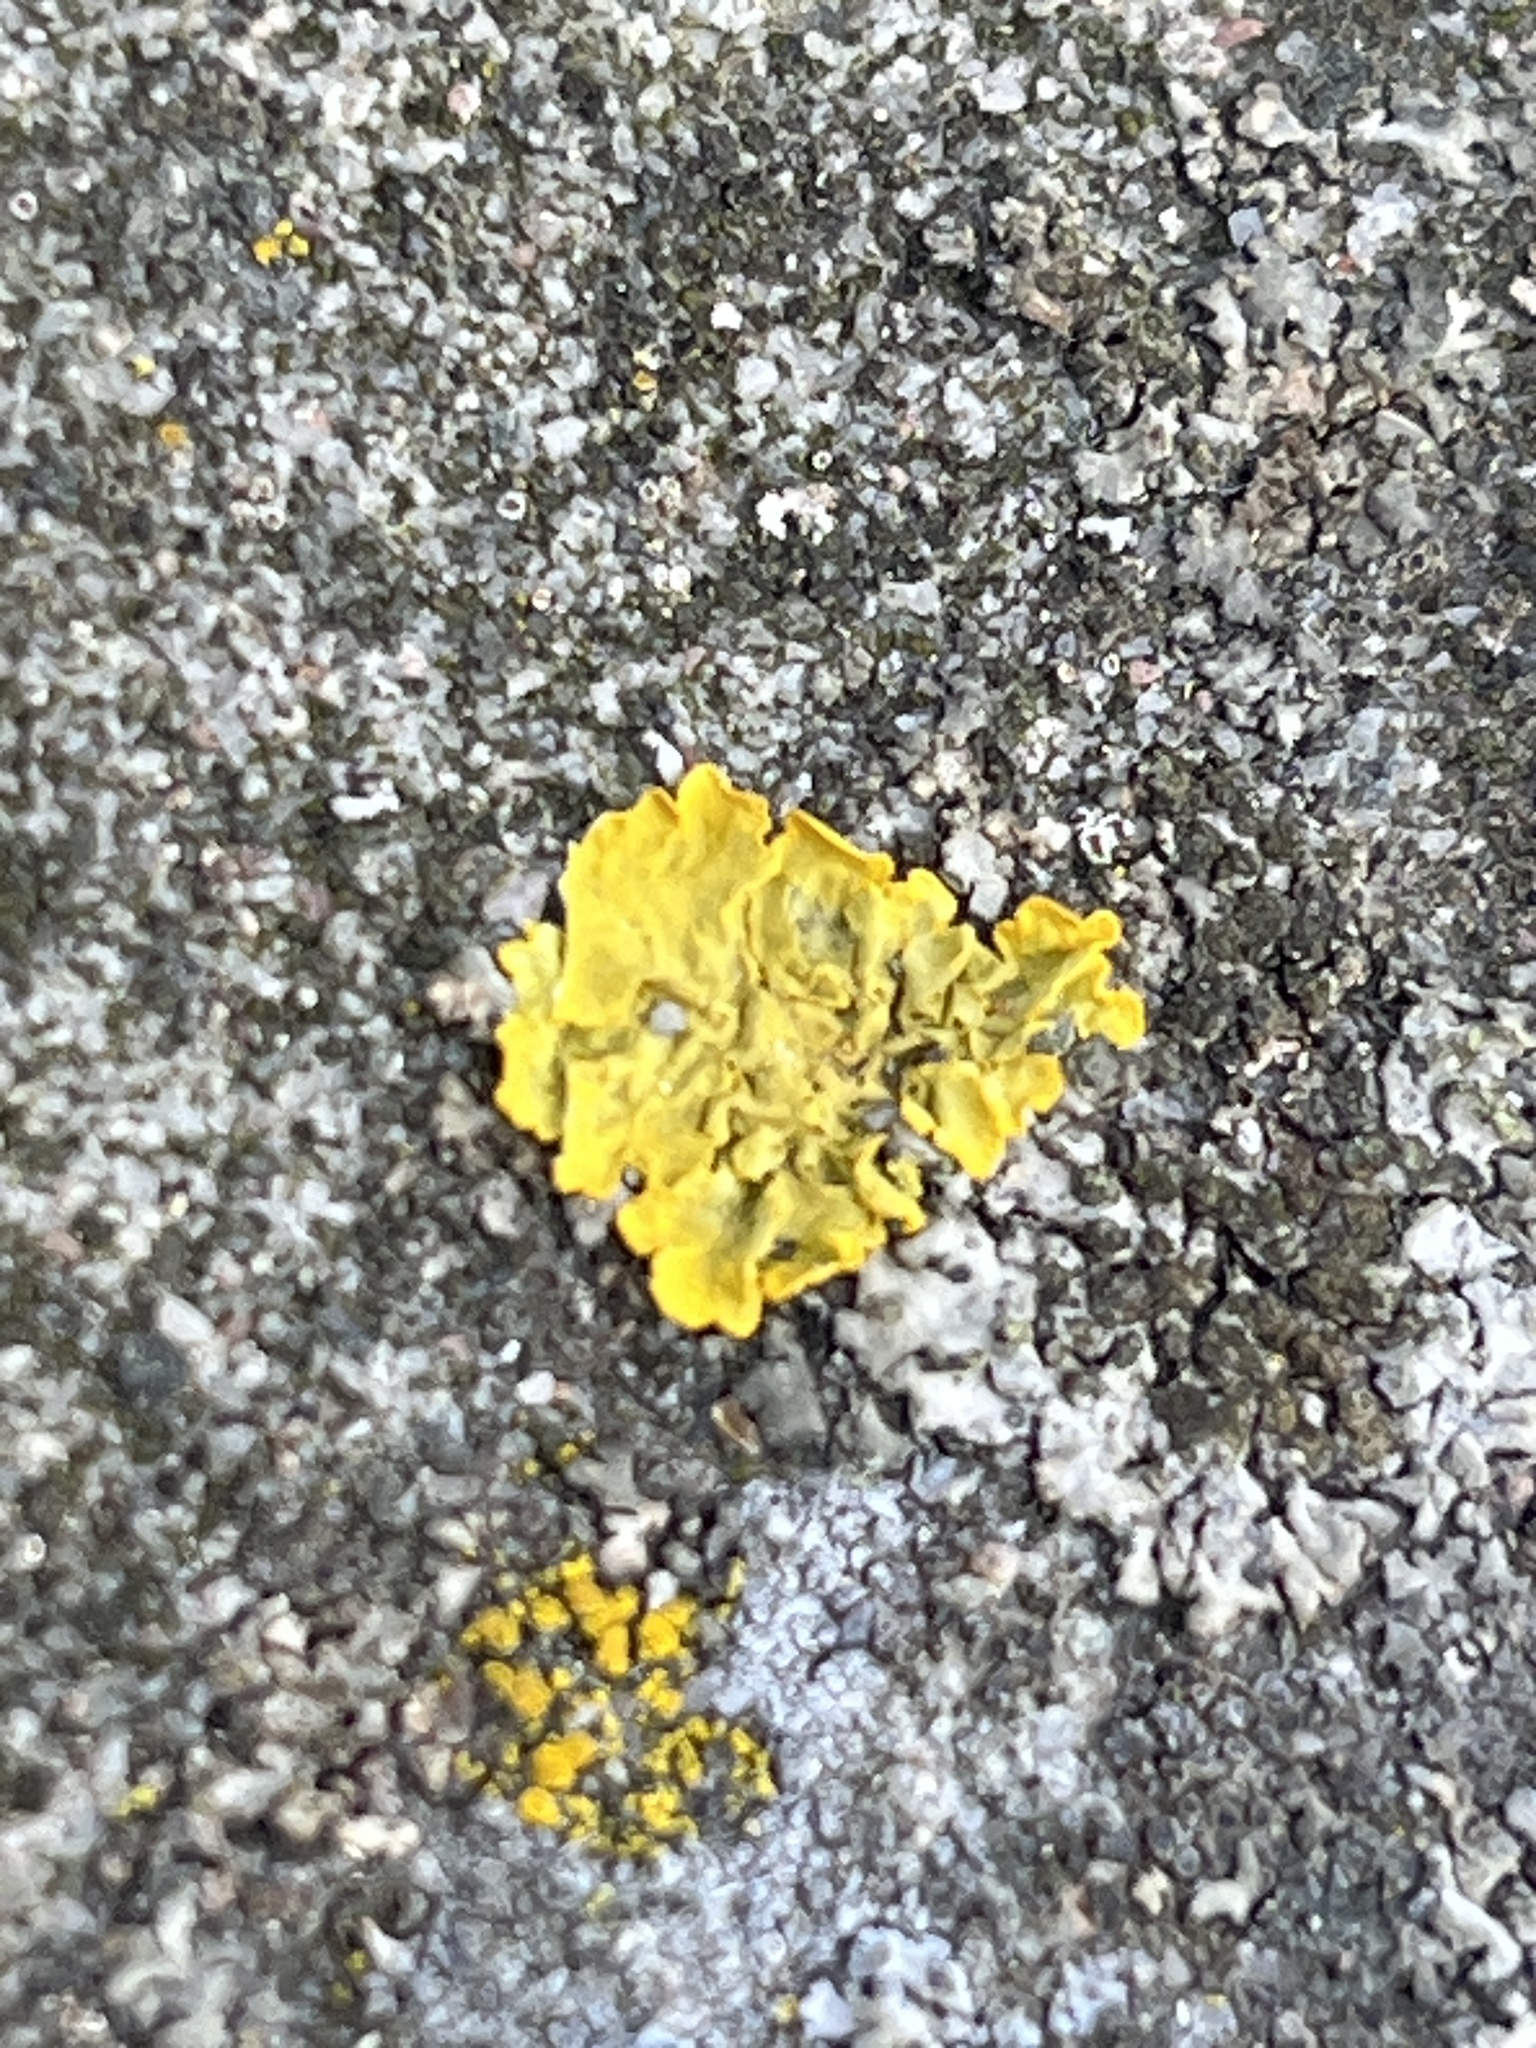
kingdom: Fungi
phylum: Ascomycota
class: Lecanoromycetes
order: Teloschistales
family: Teloschistaceae
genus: Xanthoria
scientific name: Xanthoria parietina
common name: Common orange lichen
